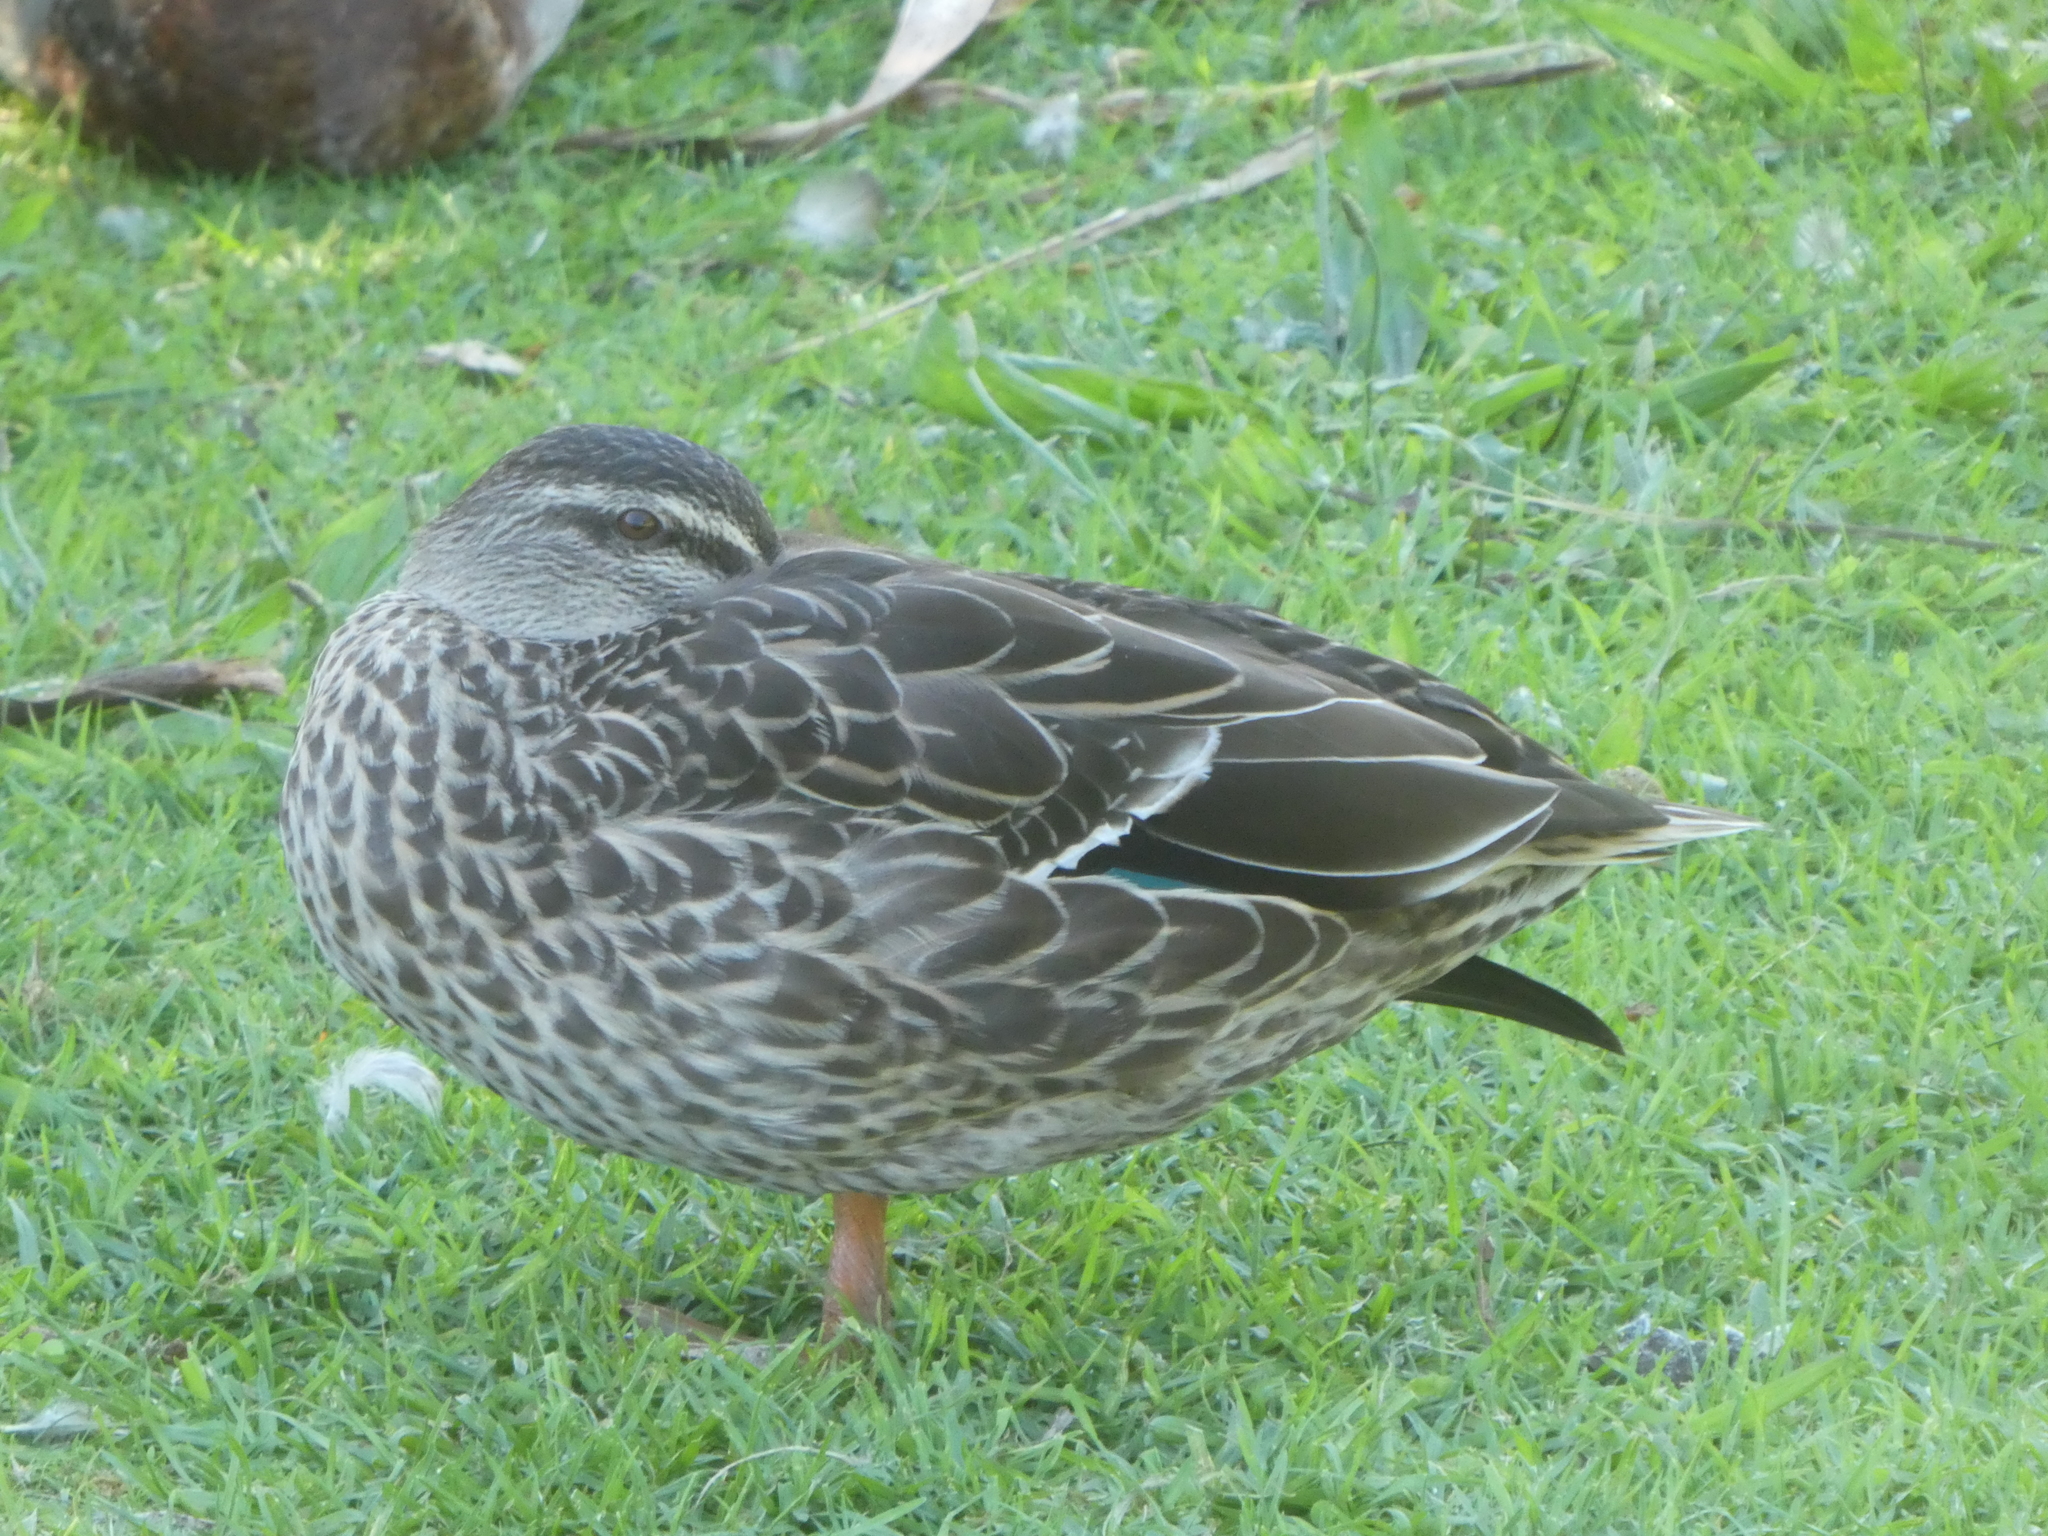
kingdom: Animalia
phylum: Chordata
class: Aves
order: Anseriformes
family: Anatidae
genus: Anas
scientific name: Anas platyrhynchos
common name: Mallard
